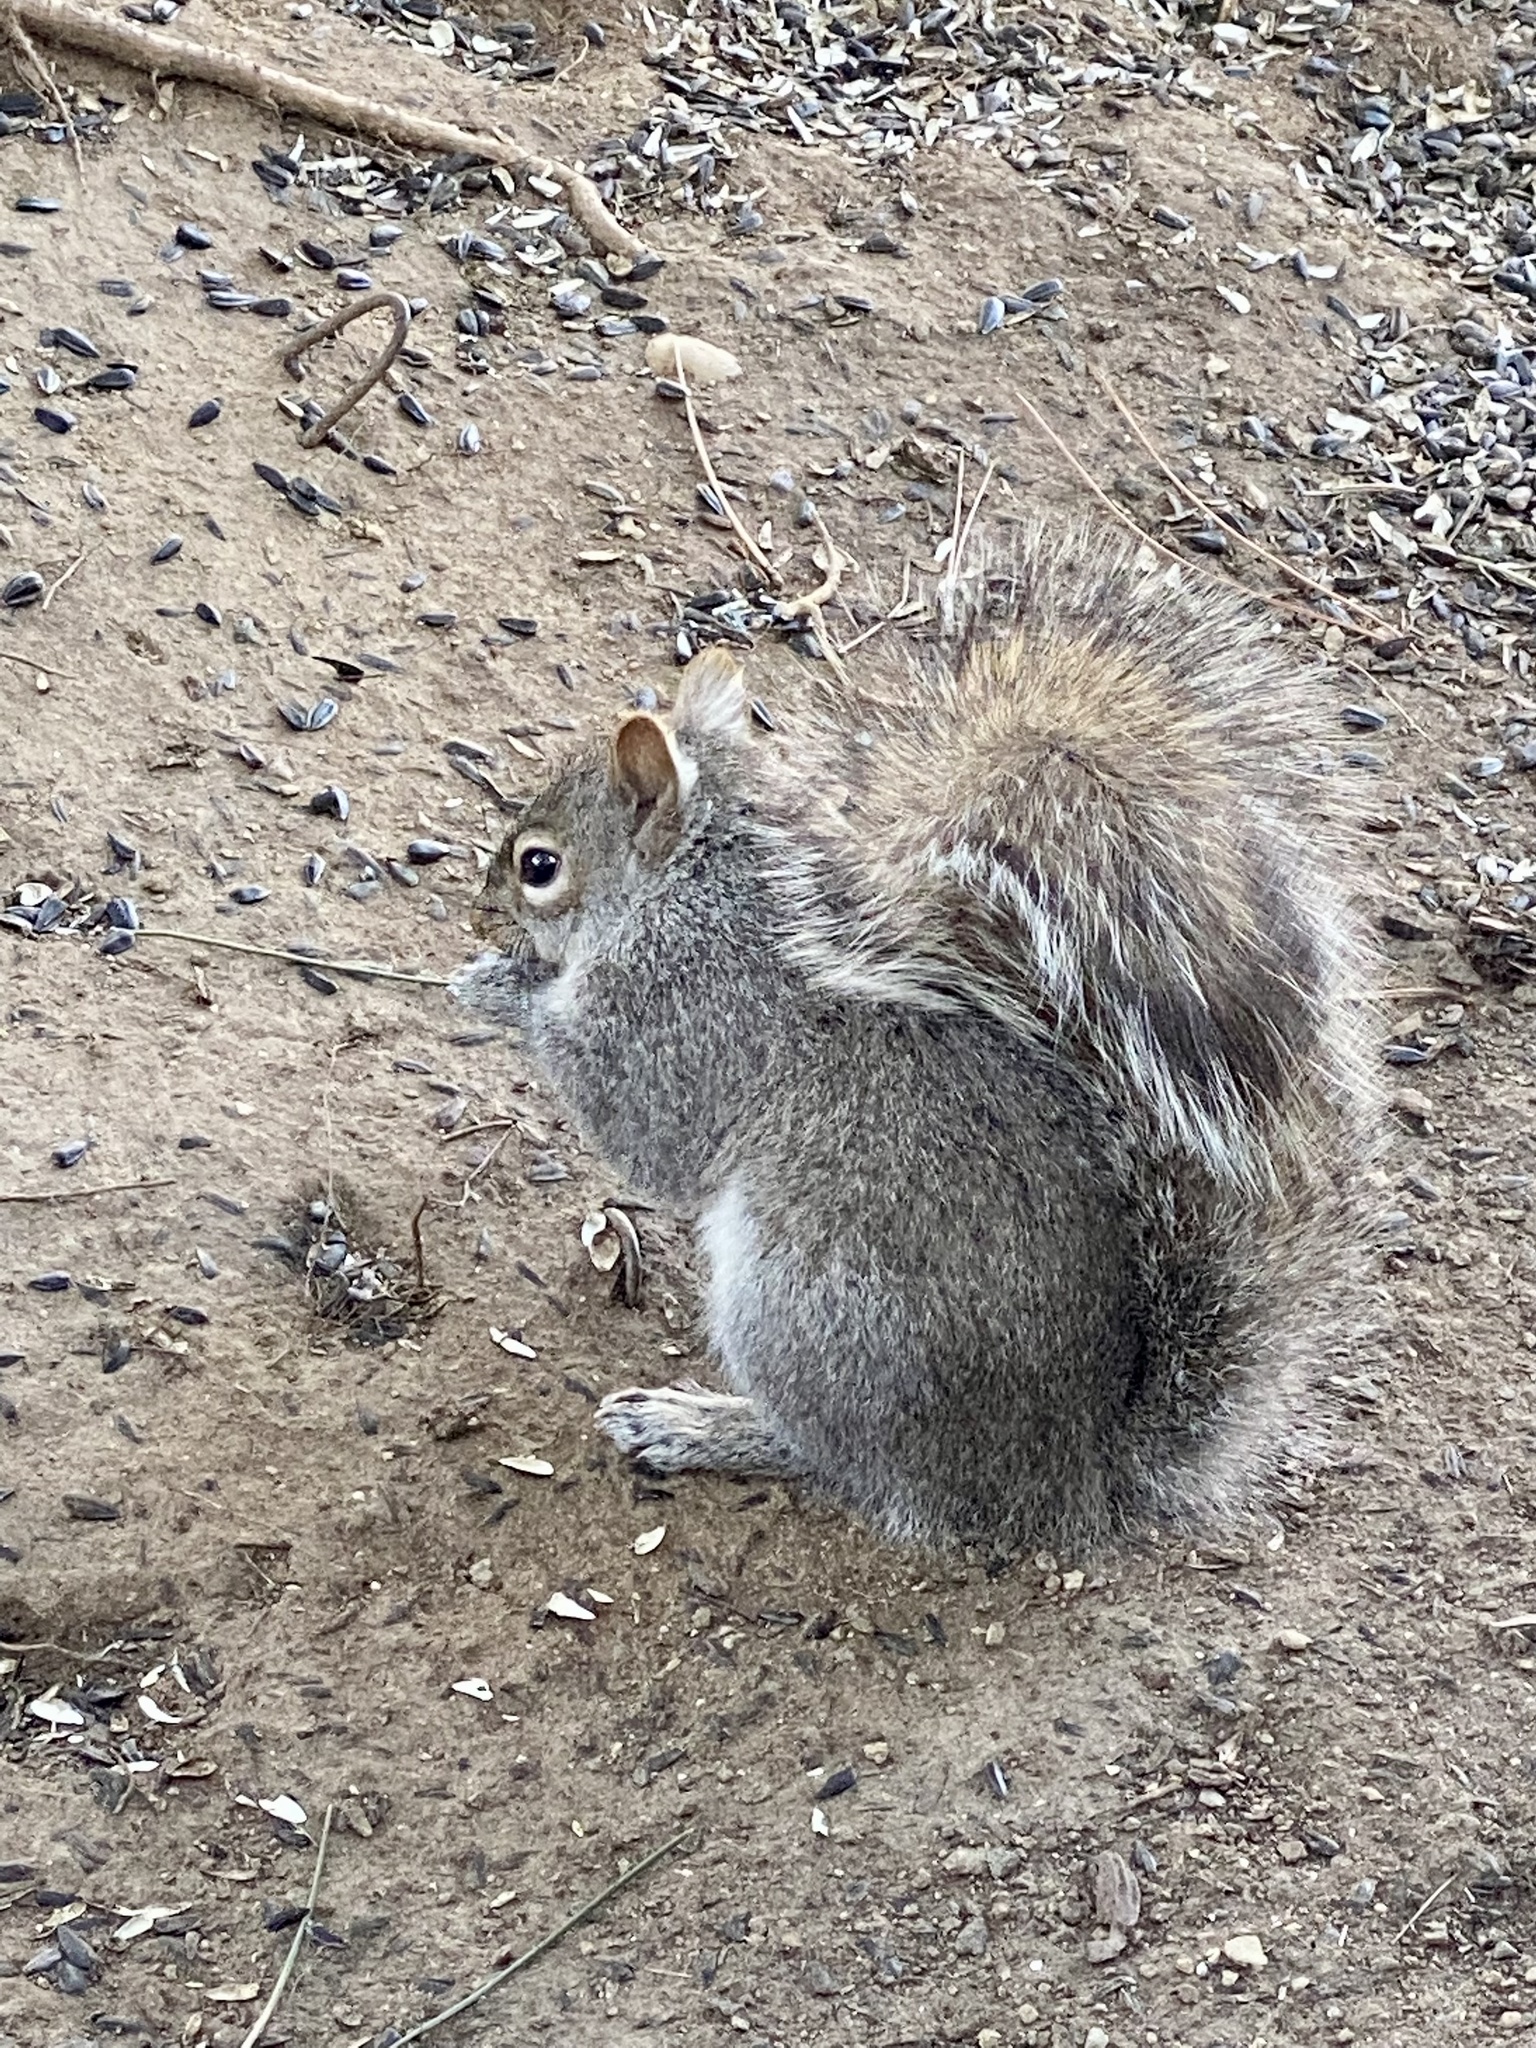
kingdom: Animalia
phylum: Chordata
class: Mammalia
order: Rodentia
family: Sciuridae
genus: Sciurus
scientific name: Sciurus carolinensis
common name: Eastern gray squirrel
